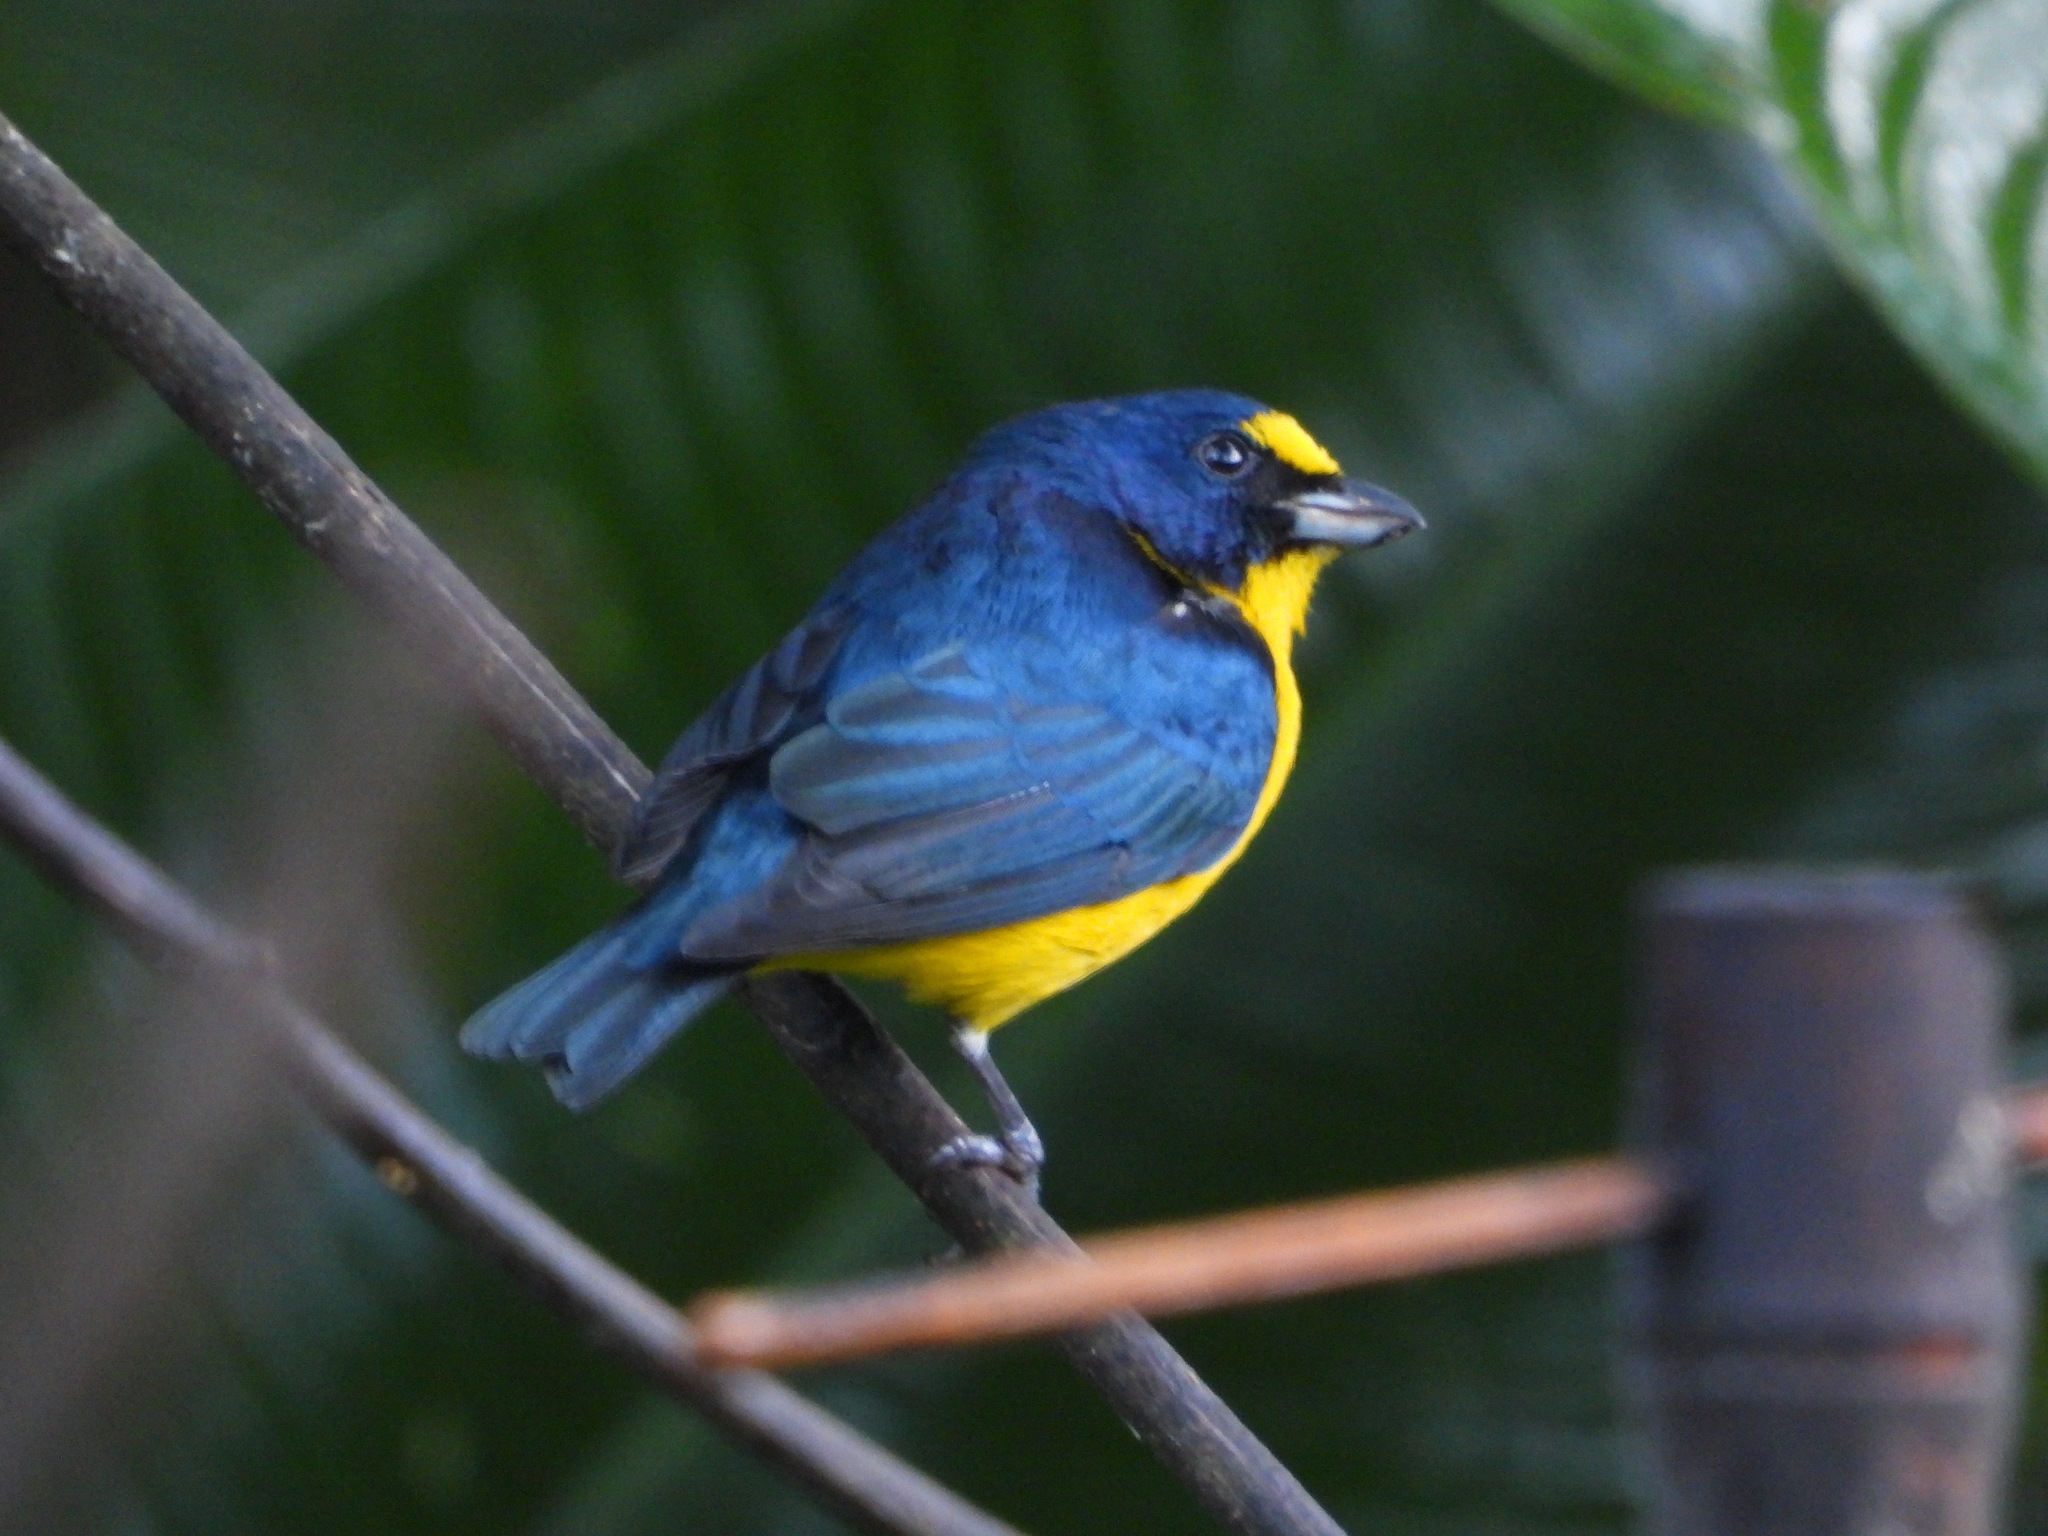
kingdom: Animalia
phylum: Chordata
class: Aves
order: Passeriformes
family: Fringillidae
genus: Euphonia
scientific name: Euphonia hirundinacea
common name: Yellow-throated euphonia
